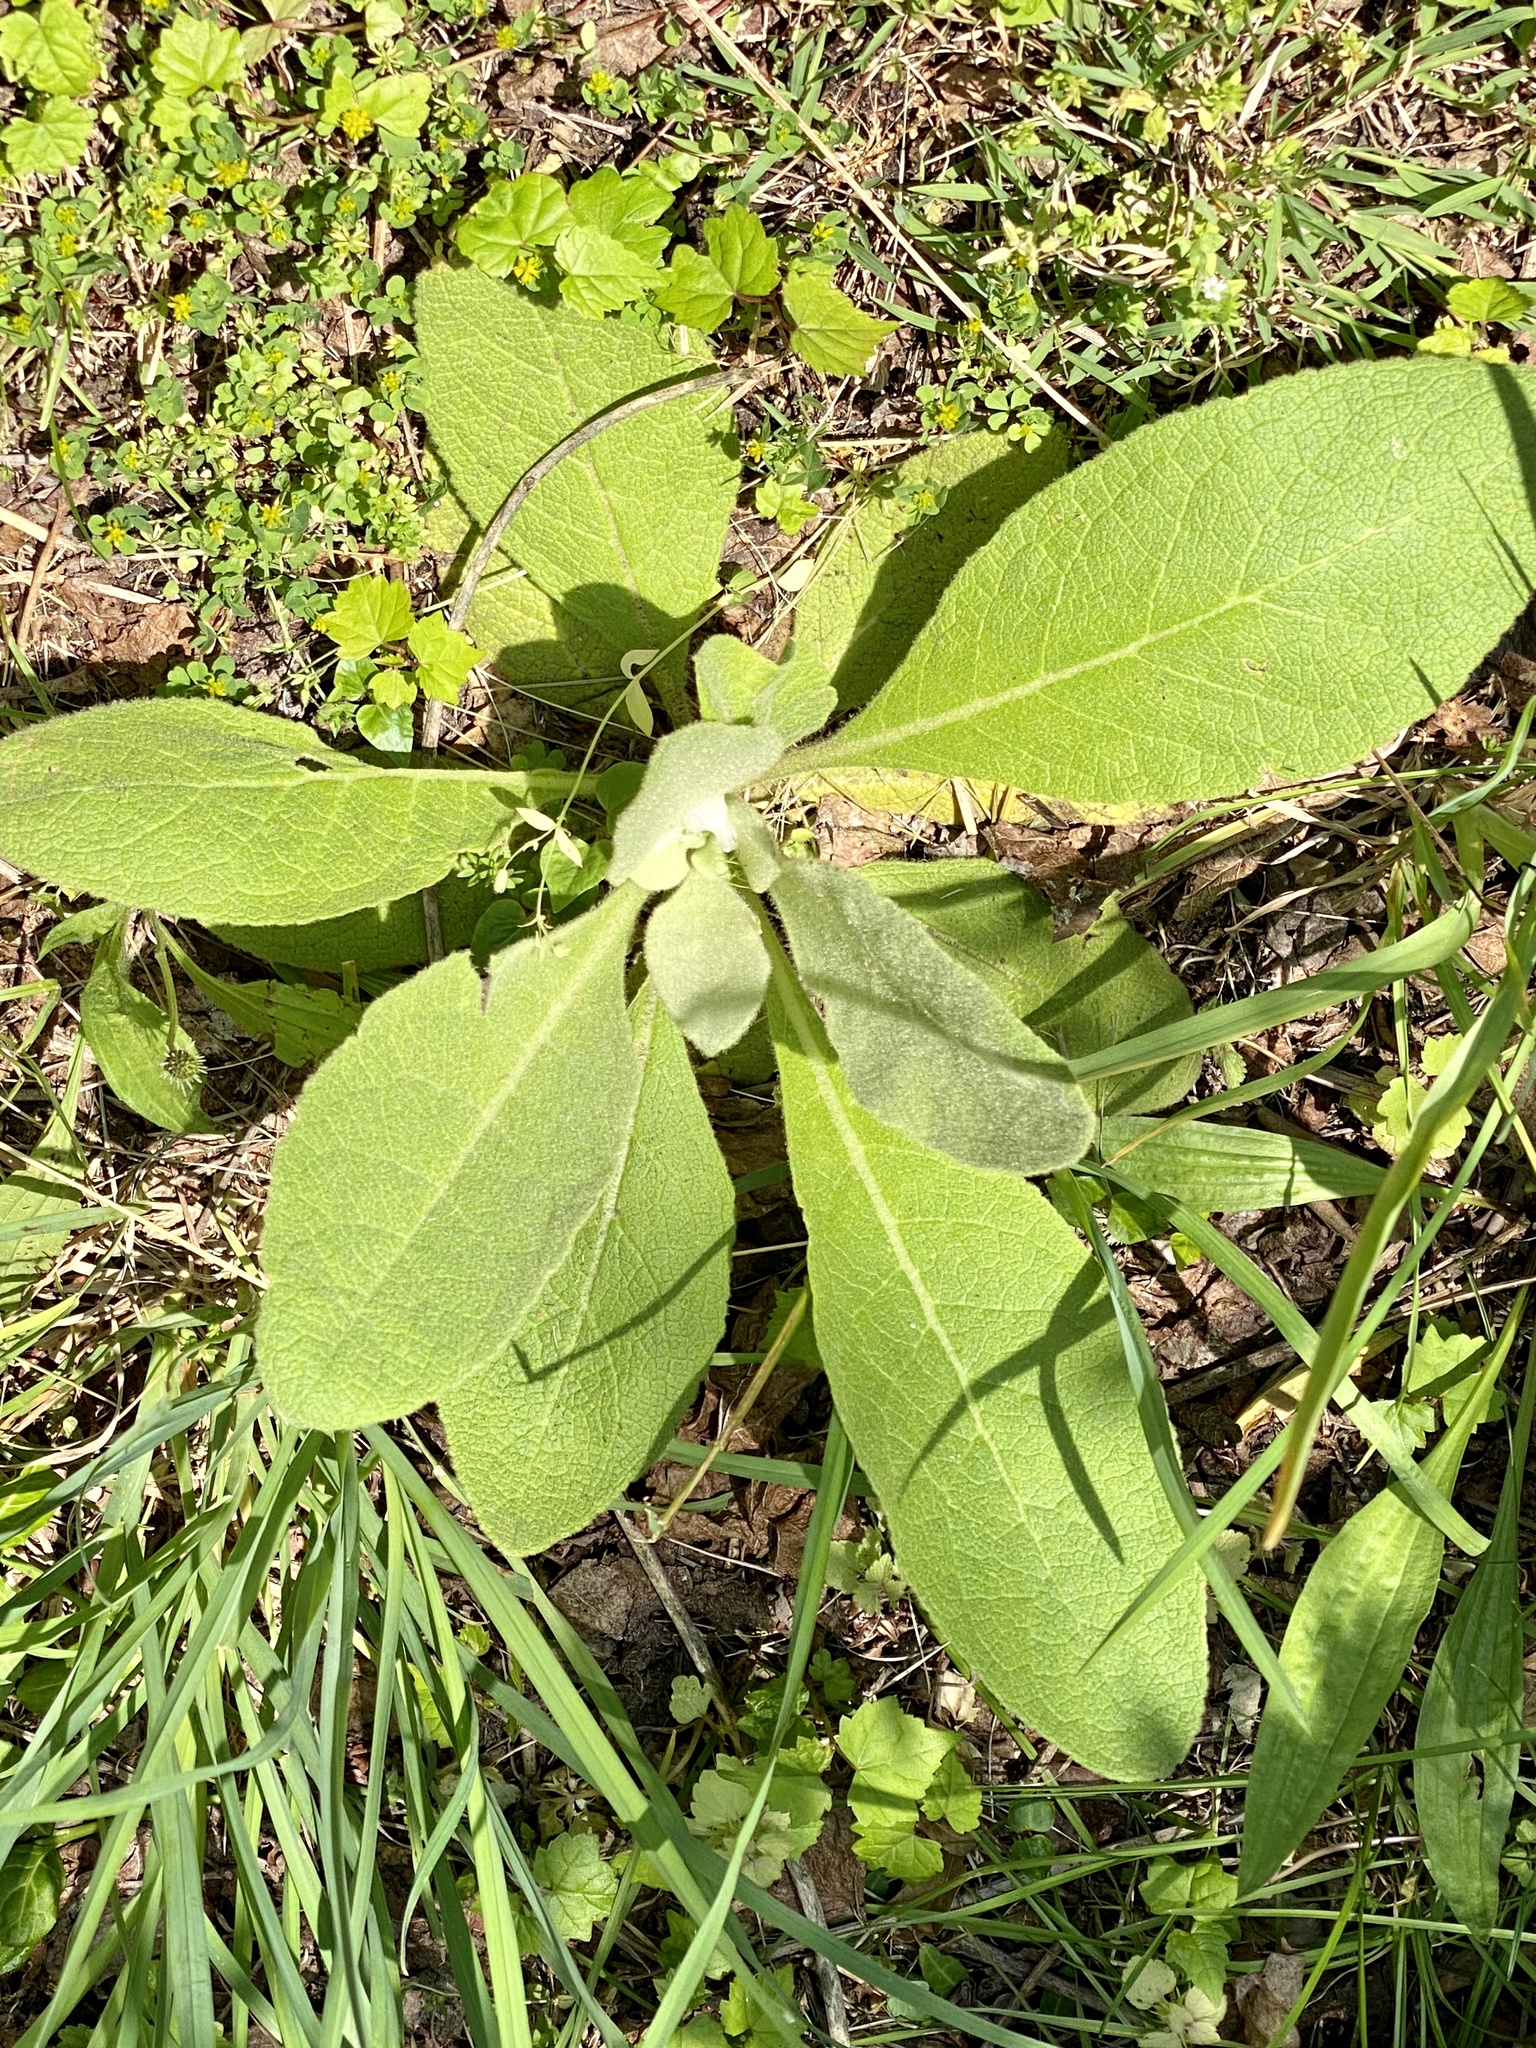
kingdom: Plantae
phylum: Tracheophyta
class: Magnoliopsida
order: Lamiales
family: Scrophulariaceae
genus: Verbascum
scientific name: Verbascum thapsus
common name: Common mullein
